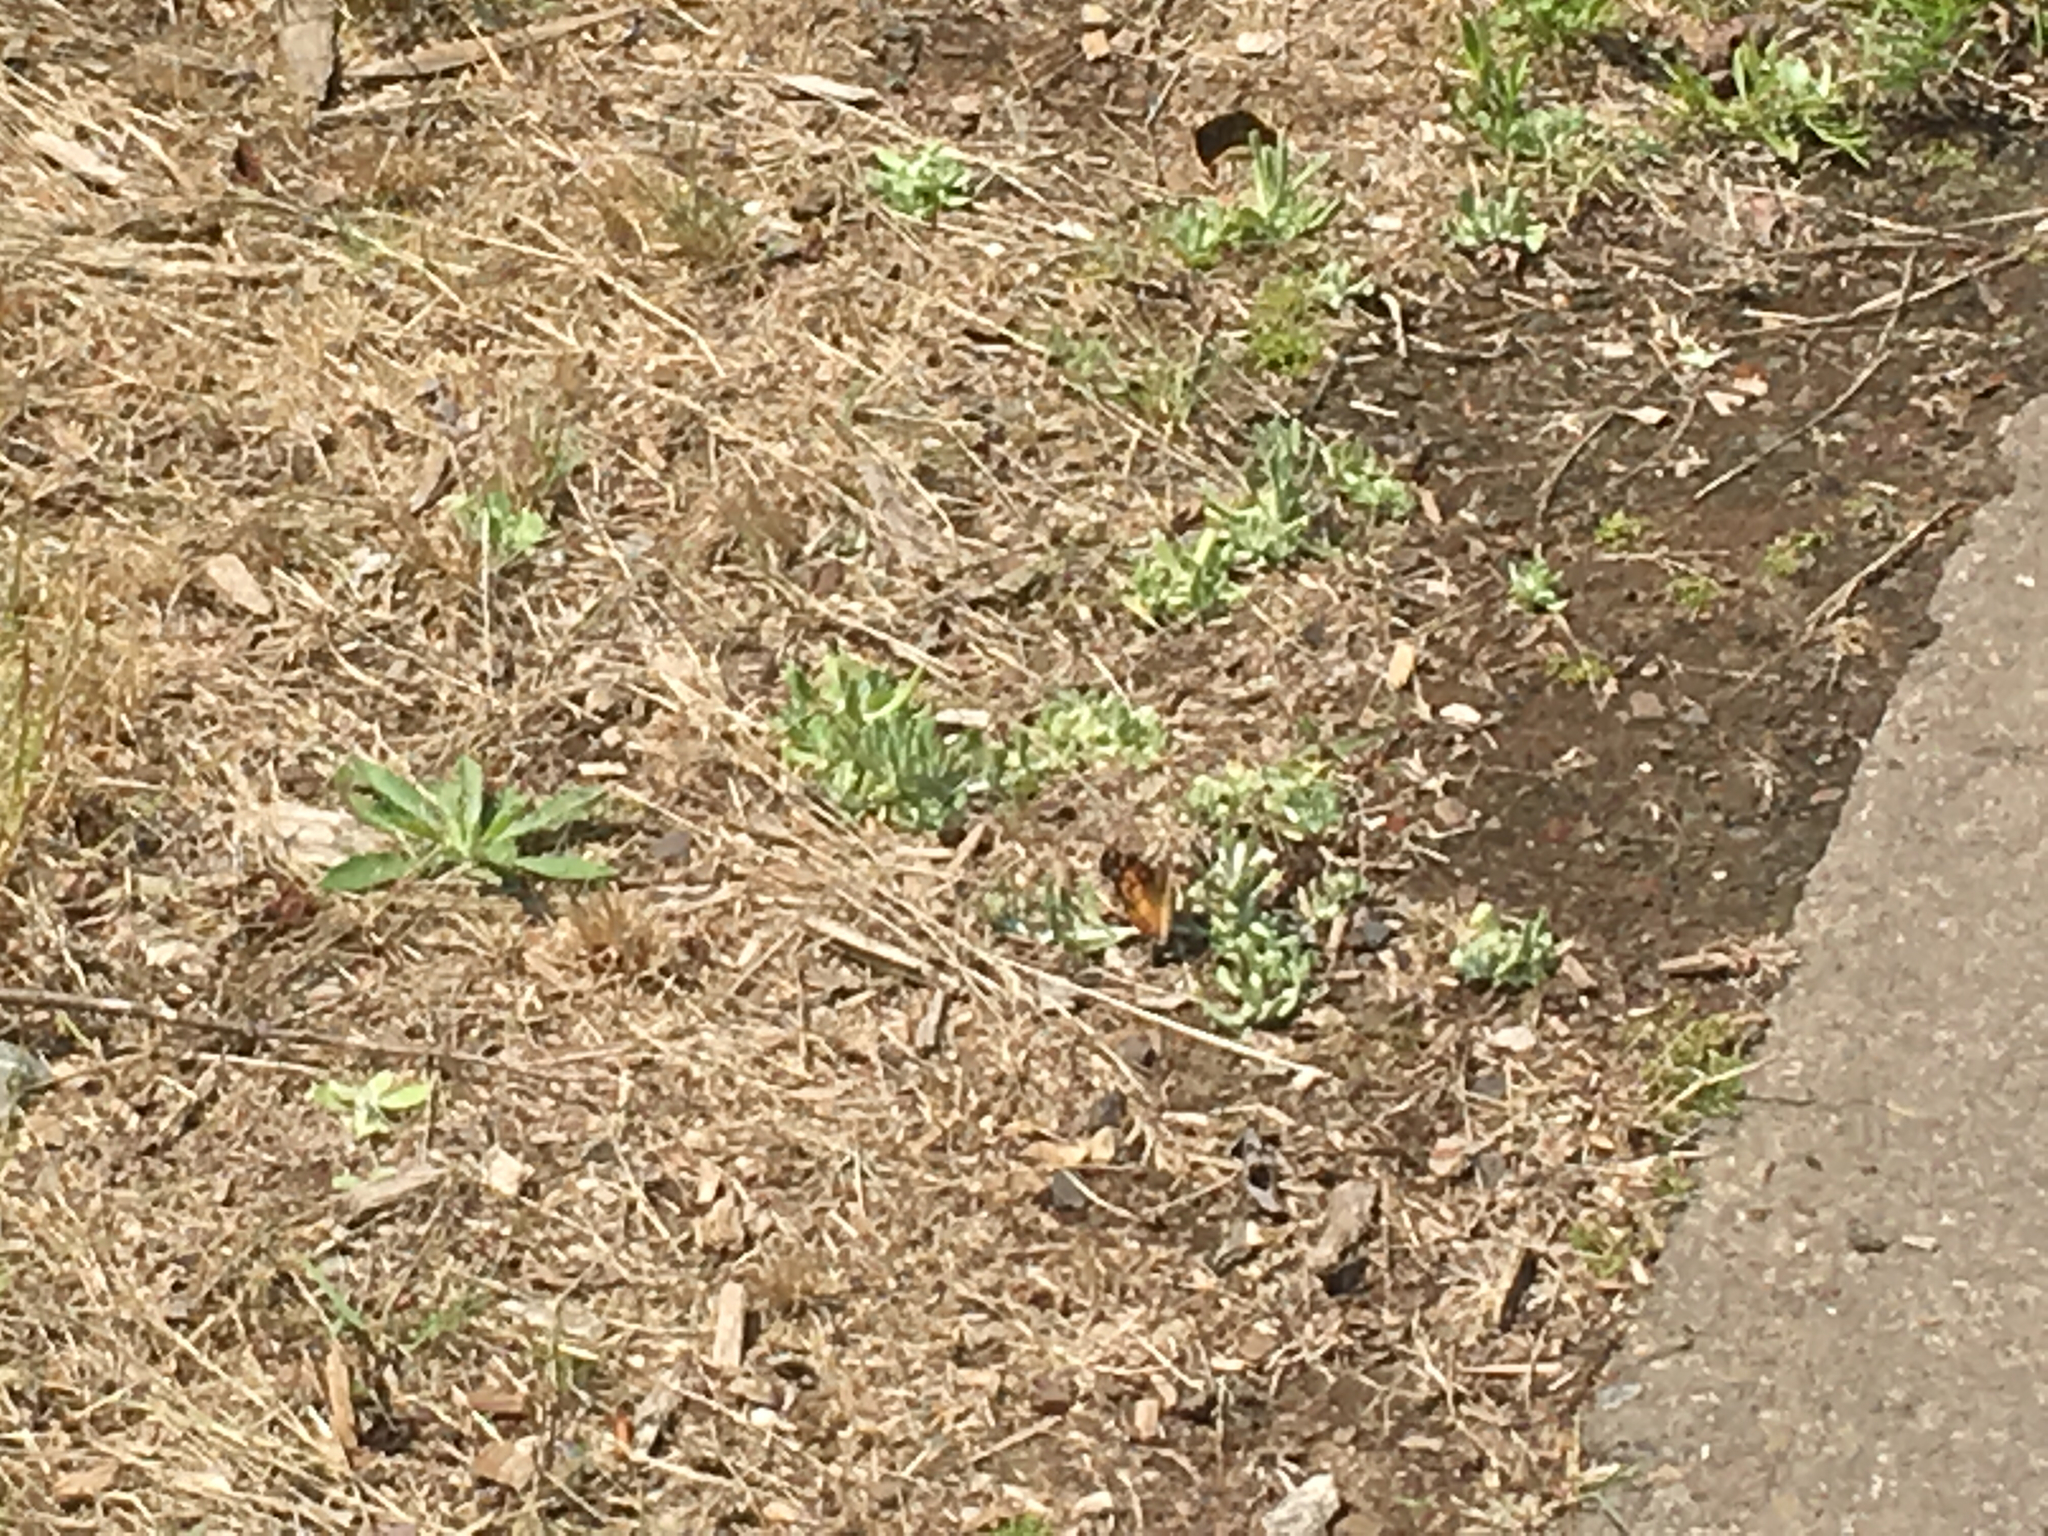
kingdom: Animalia
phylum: Arthropoda
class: Insecta
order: Lepidoptera
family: Nymphalidae
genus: Vanessa
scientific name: Vanessa virginiensis
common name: American lady
